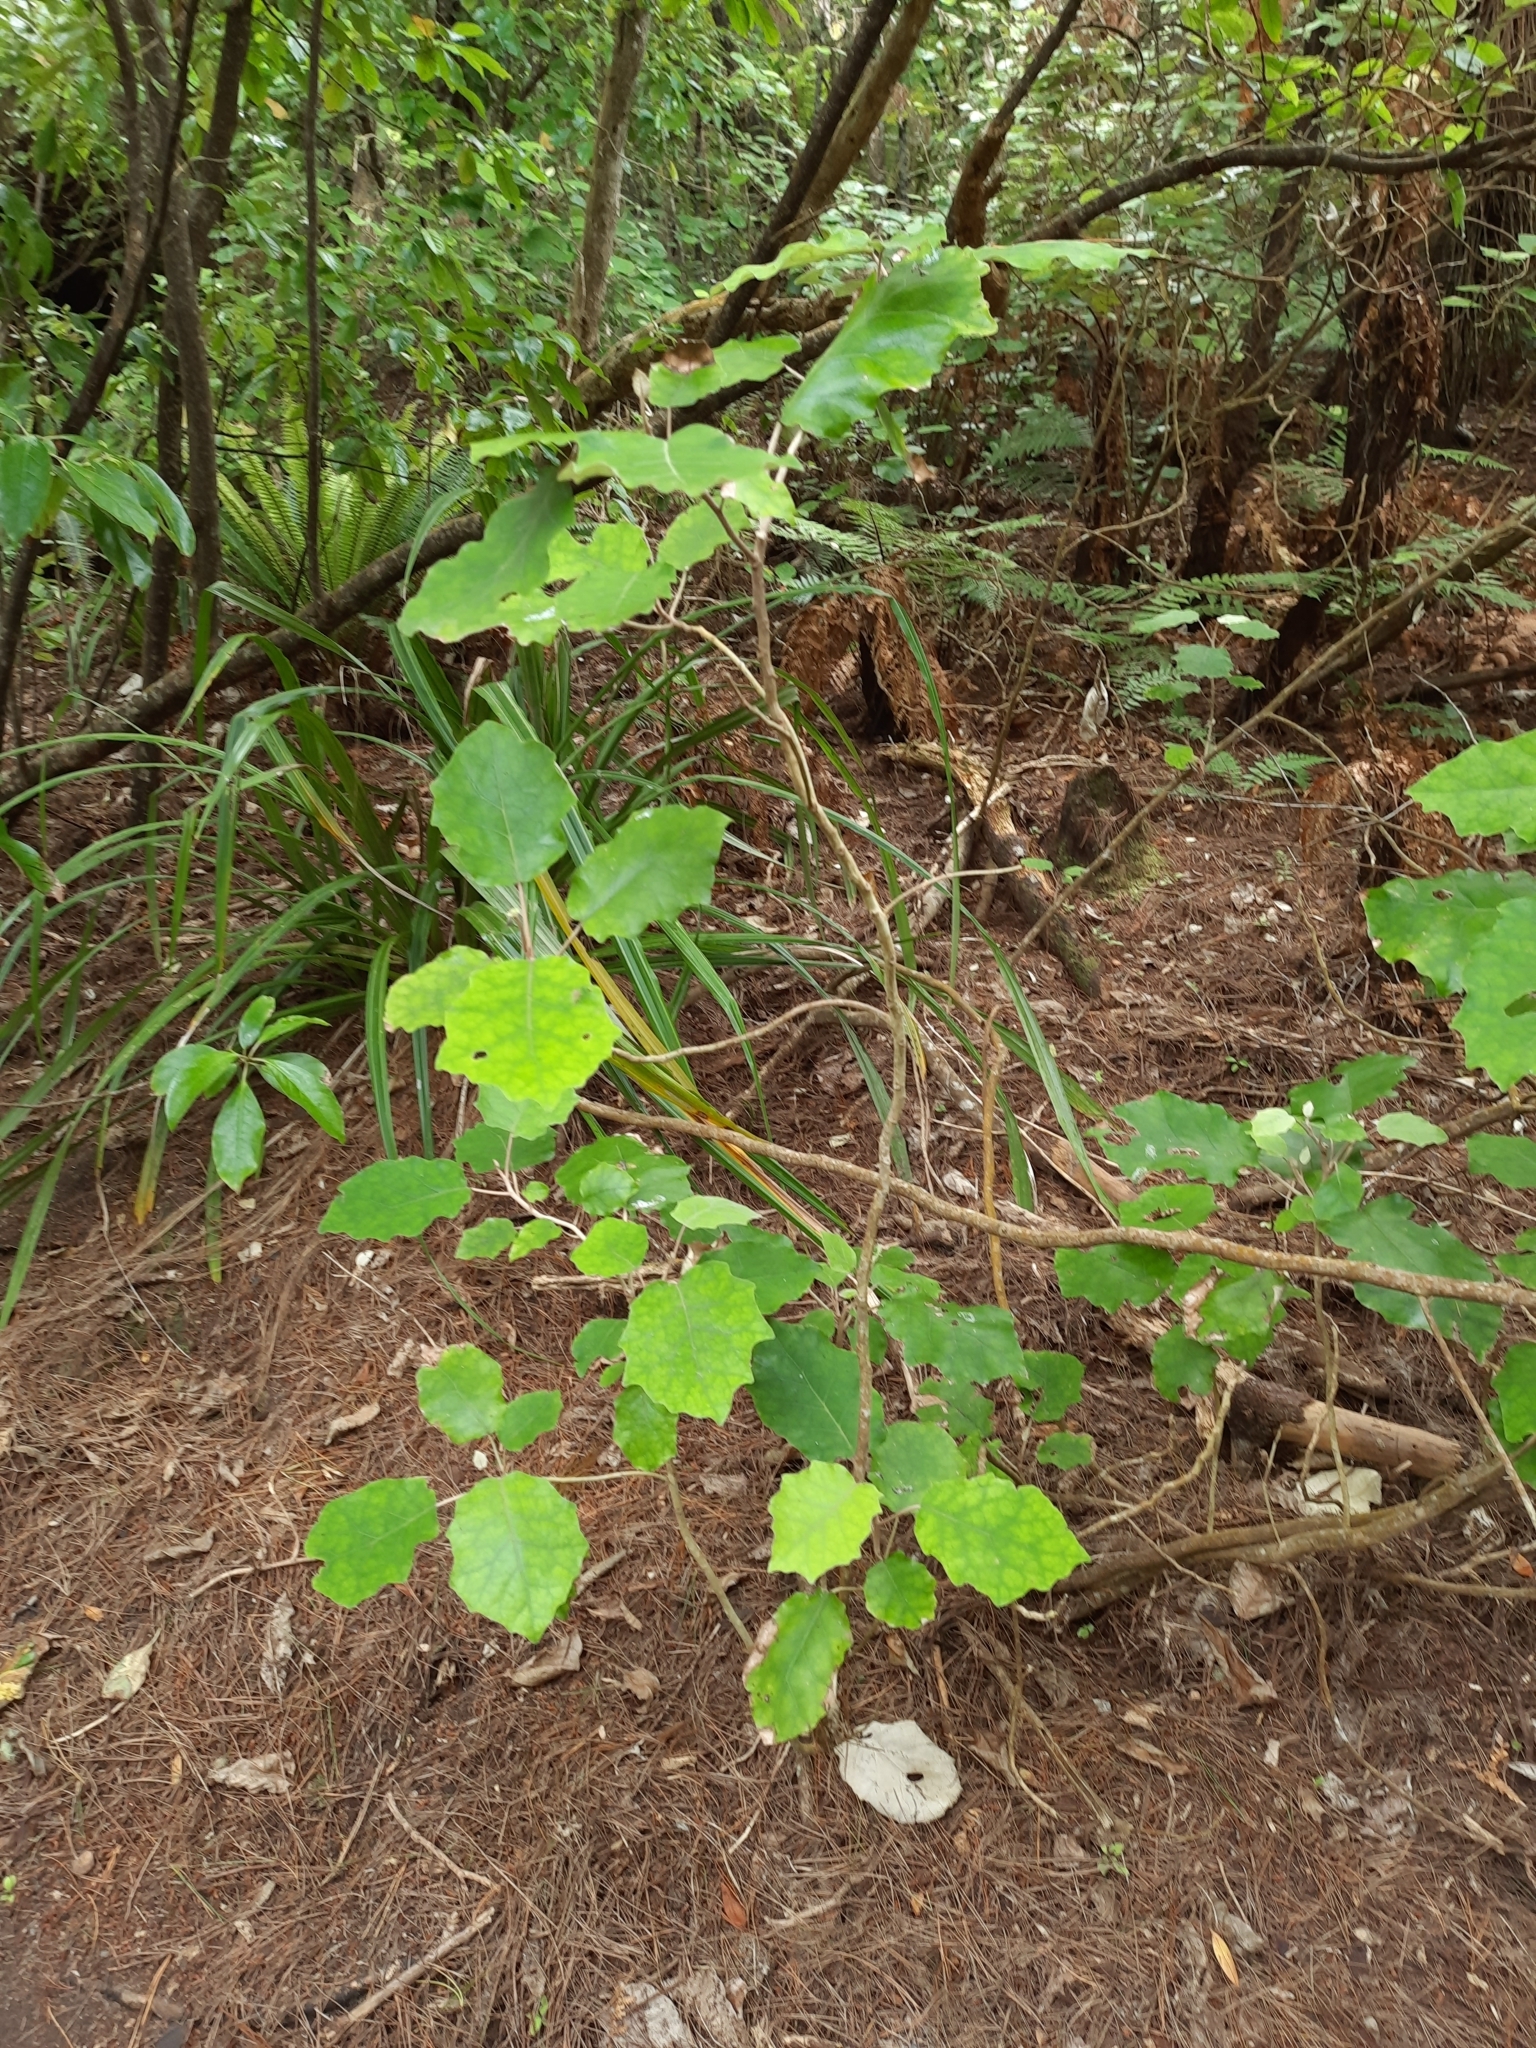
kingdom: Plantae
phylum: Tracheophyta
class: Magnoliopsida
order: Asterales
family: Asteraceae
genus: Brachyglottis
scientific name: Brachyglottis repanda
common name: Hedge ragwort
